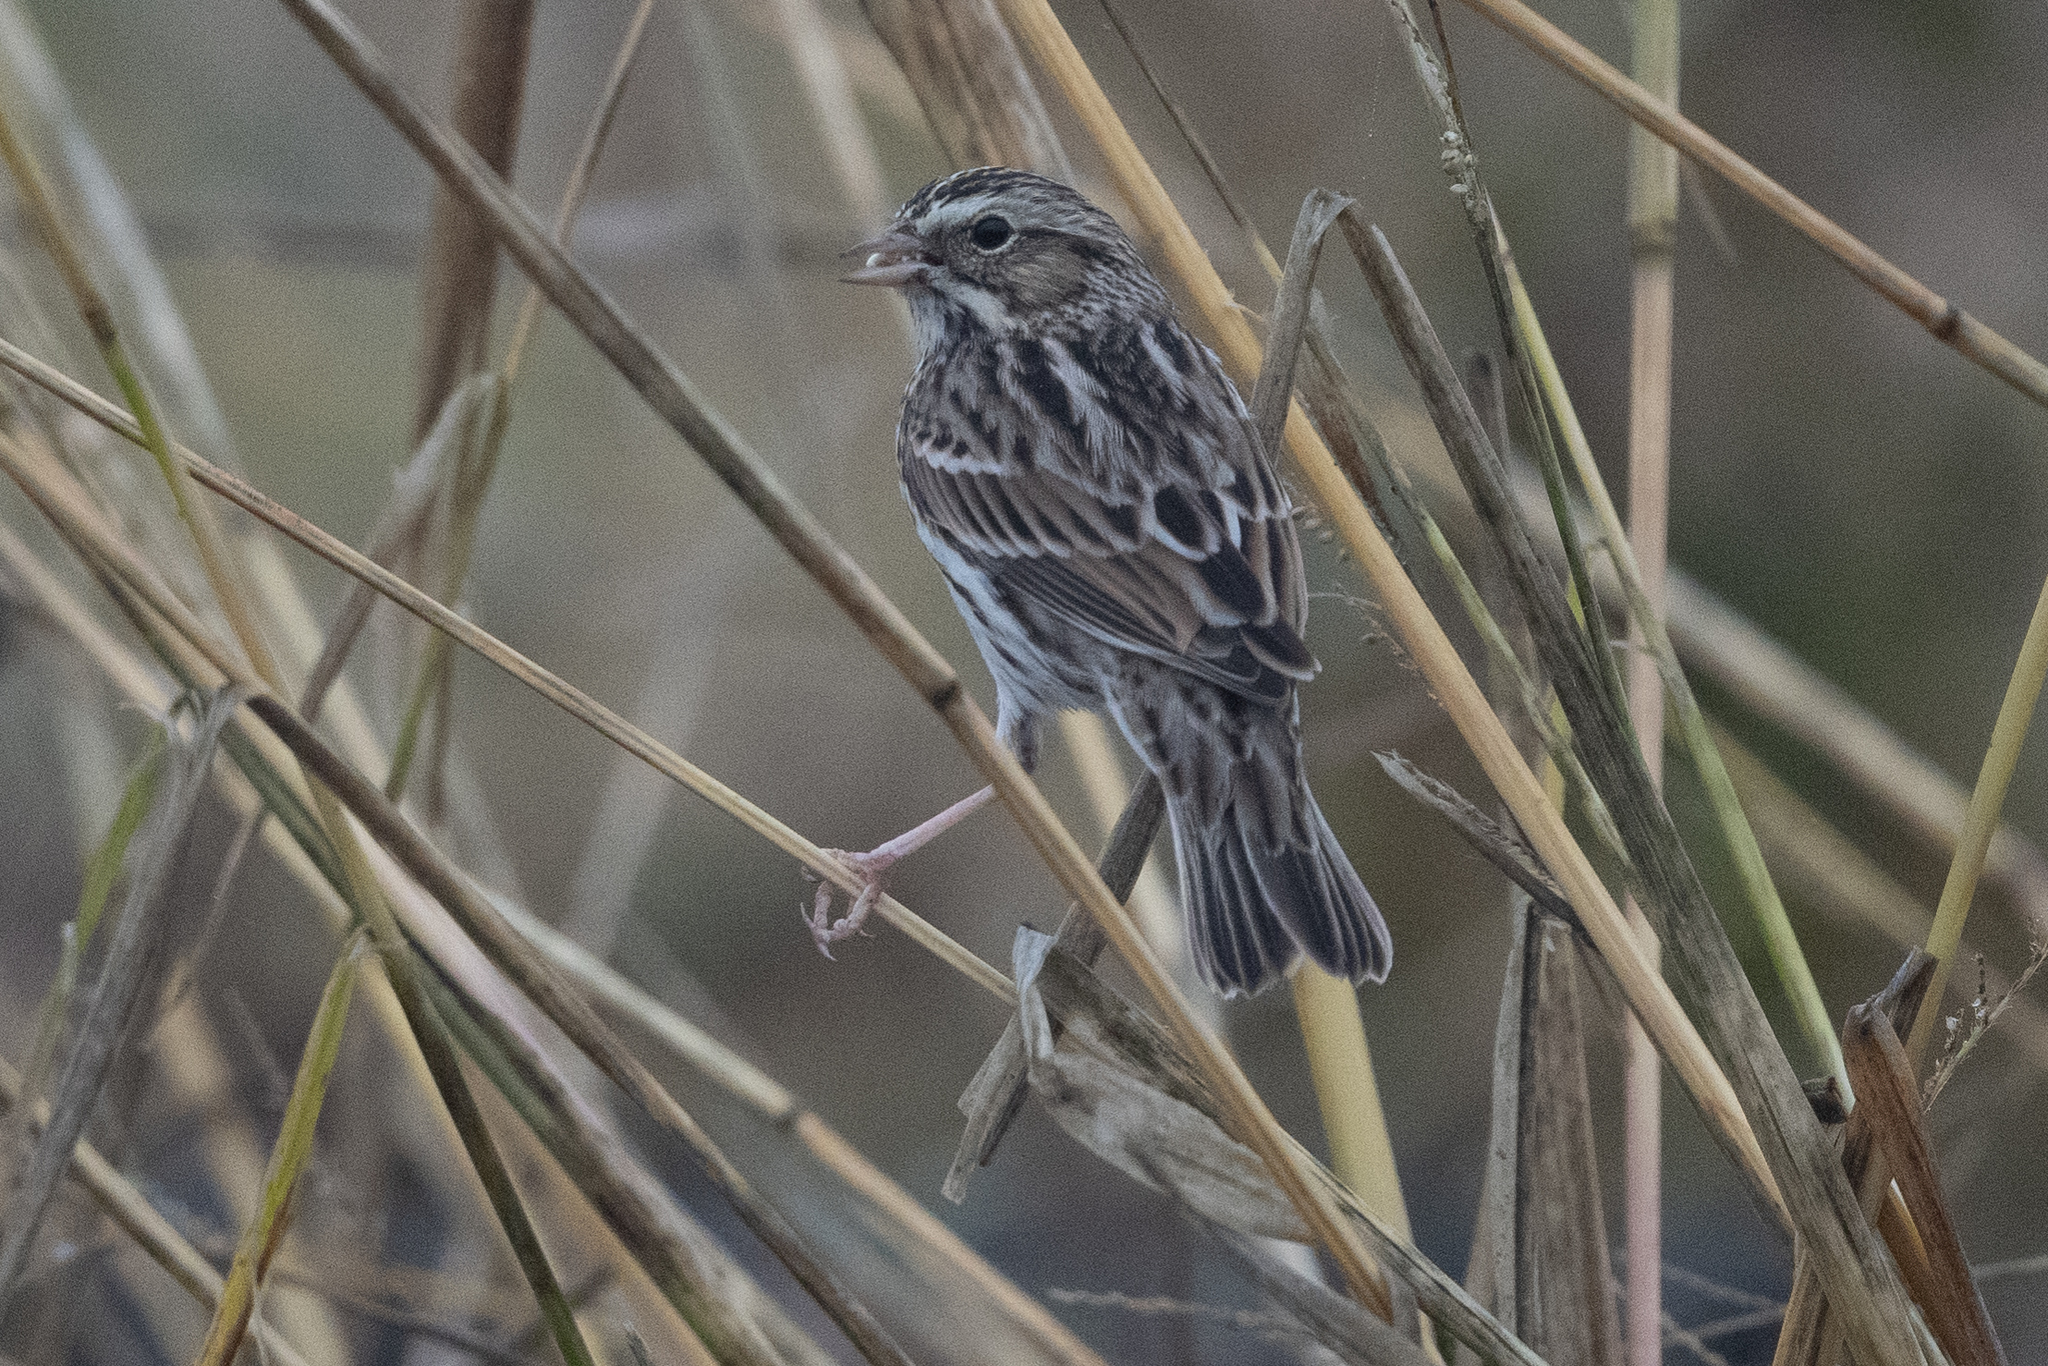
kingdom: Animalia
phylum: Chordata
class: Aves
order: Passeriformes
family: Passerellidae
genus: Passerculus
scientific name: Passerculus sandwichensis
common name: Savannah sparrow
